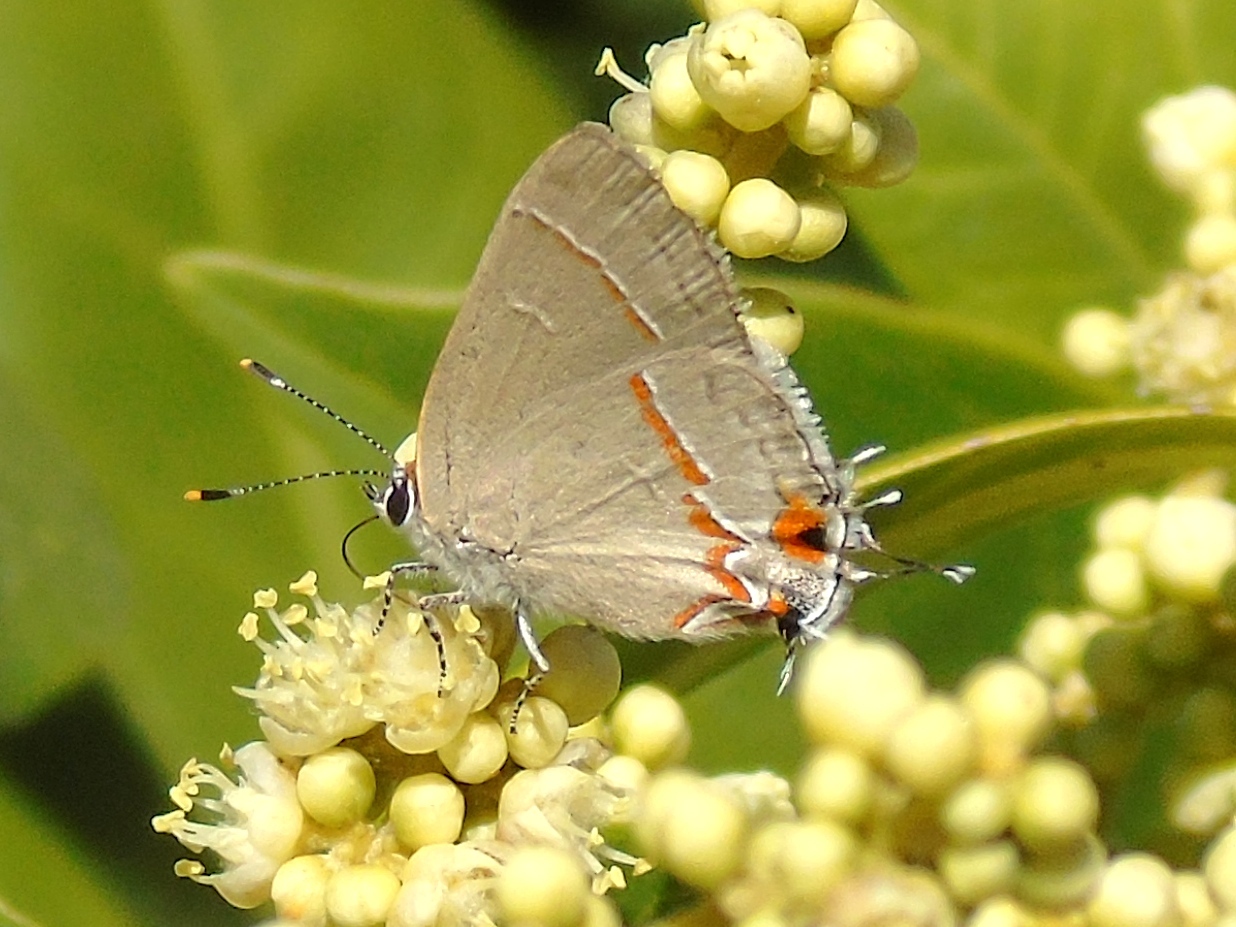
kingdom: Animalia
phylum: Arthropoda
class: Insecta
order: Lepidoptera
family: Lycaenidae
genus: Electrostrymon
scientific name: Electrostrymon endymion
